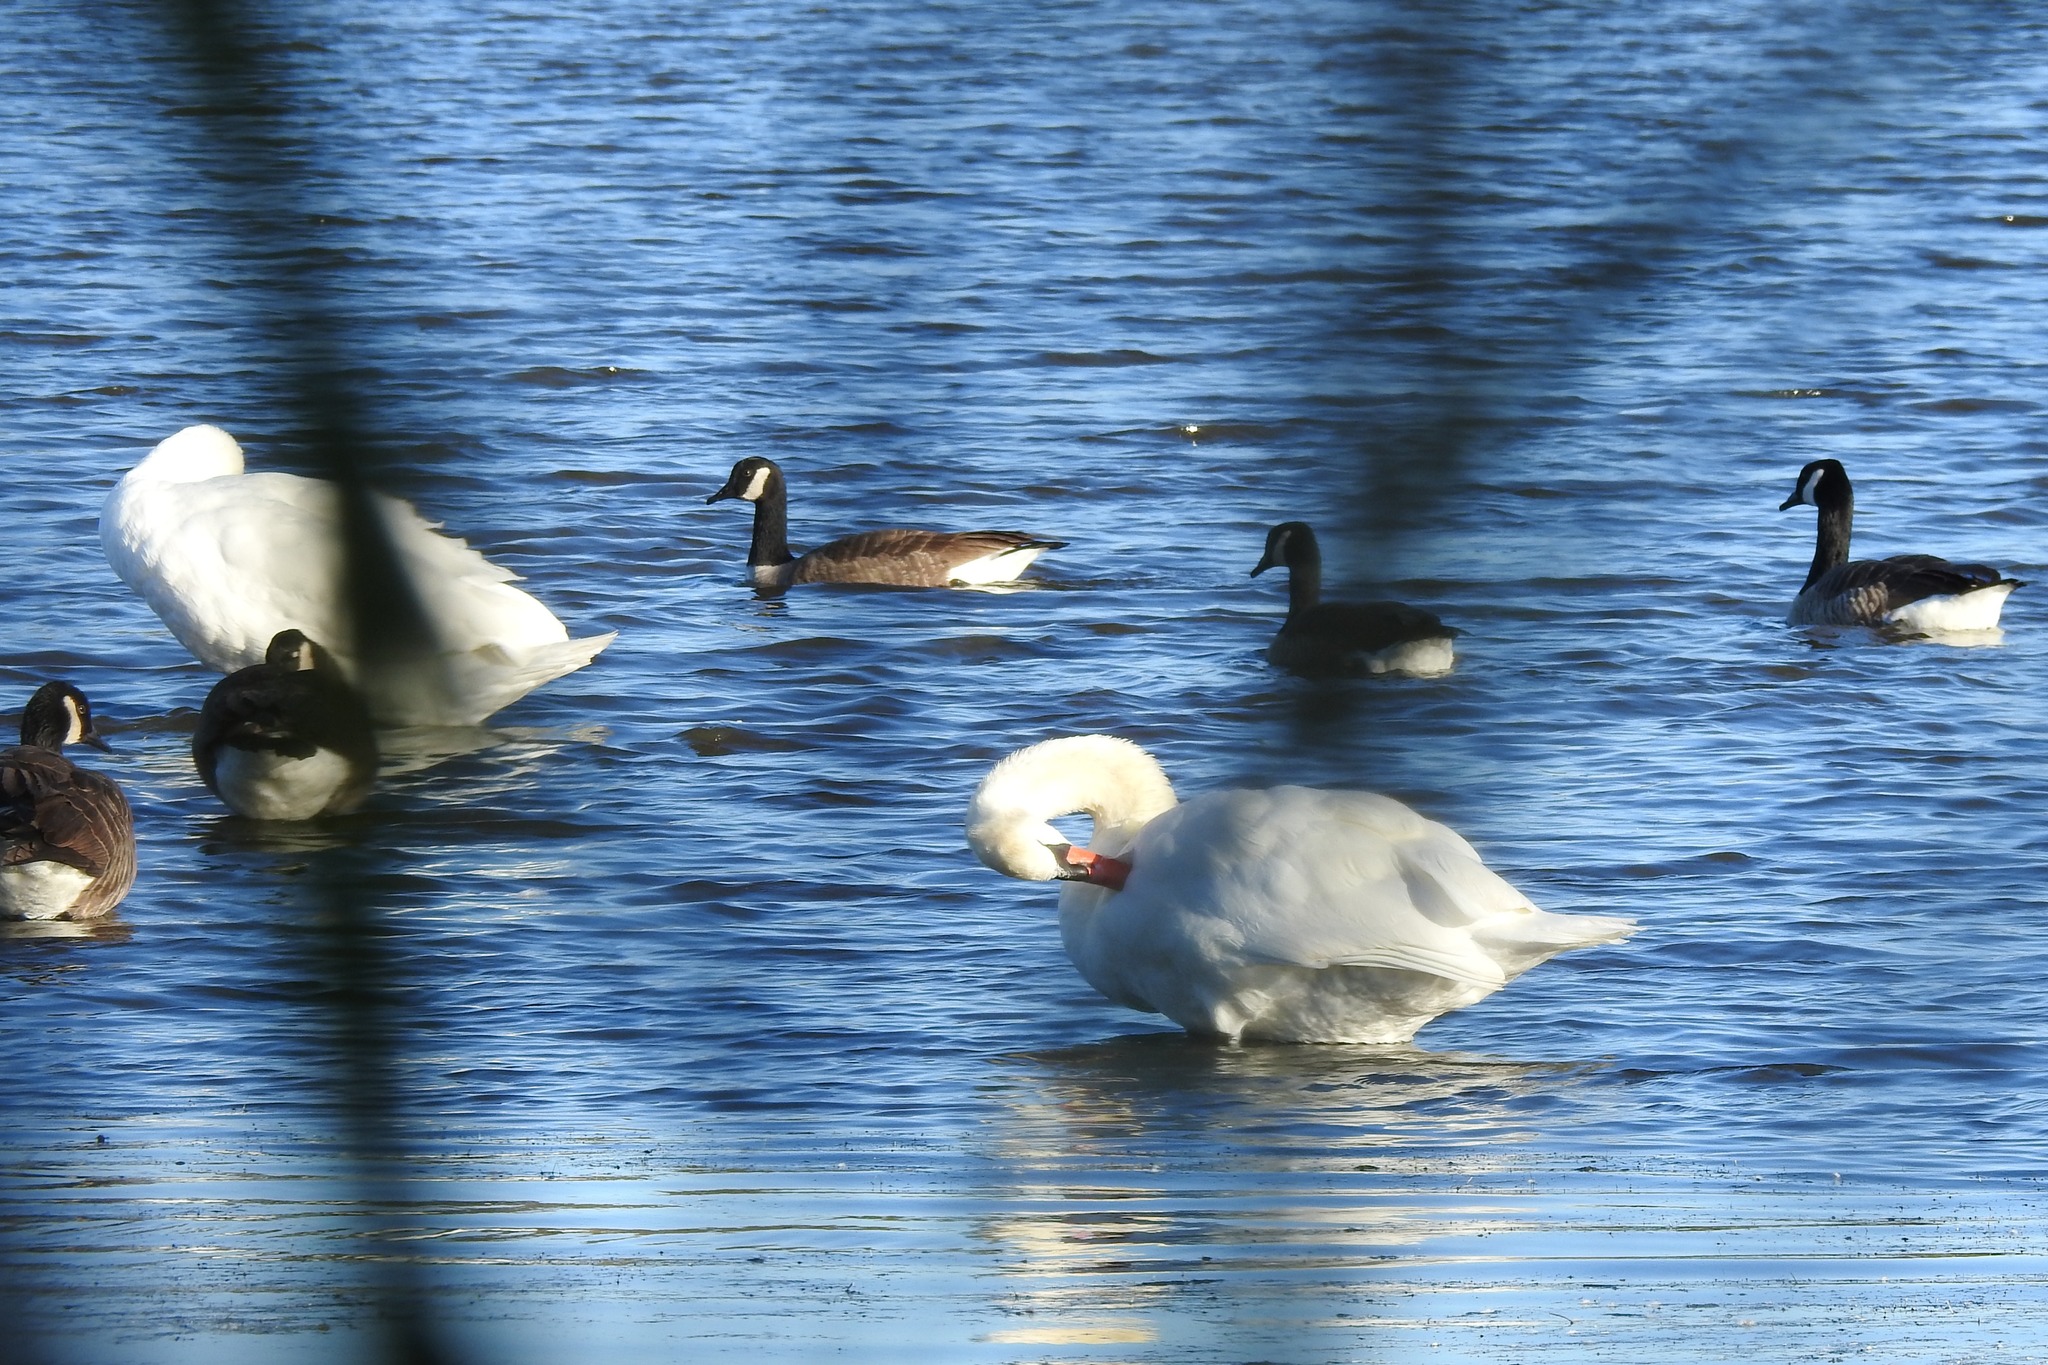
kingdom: Animalia
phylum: Chordata
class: Aves
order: Anseriformes
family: Anatidae
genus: Cygnus
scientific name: Cygnus olor
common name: Mute swan
